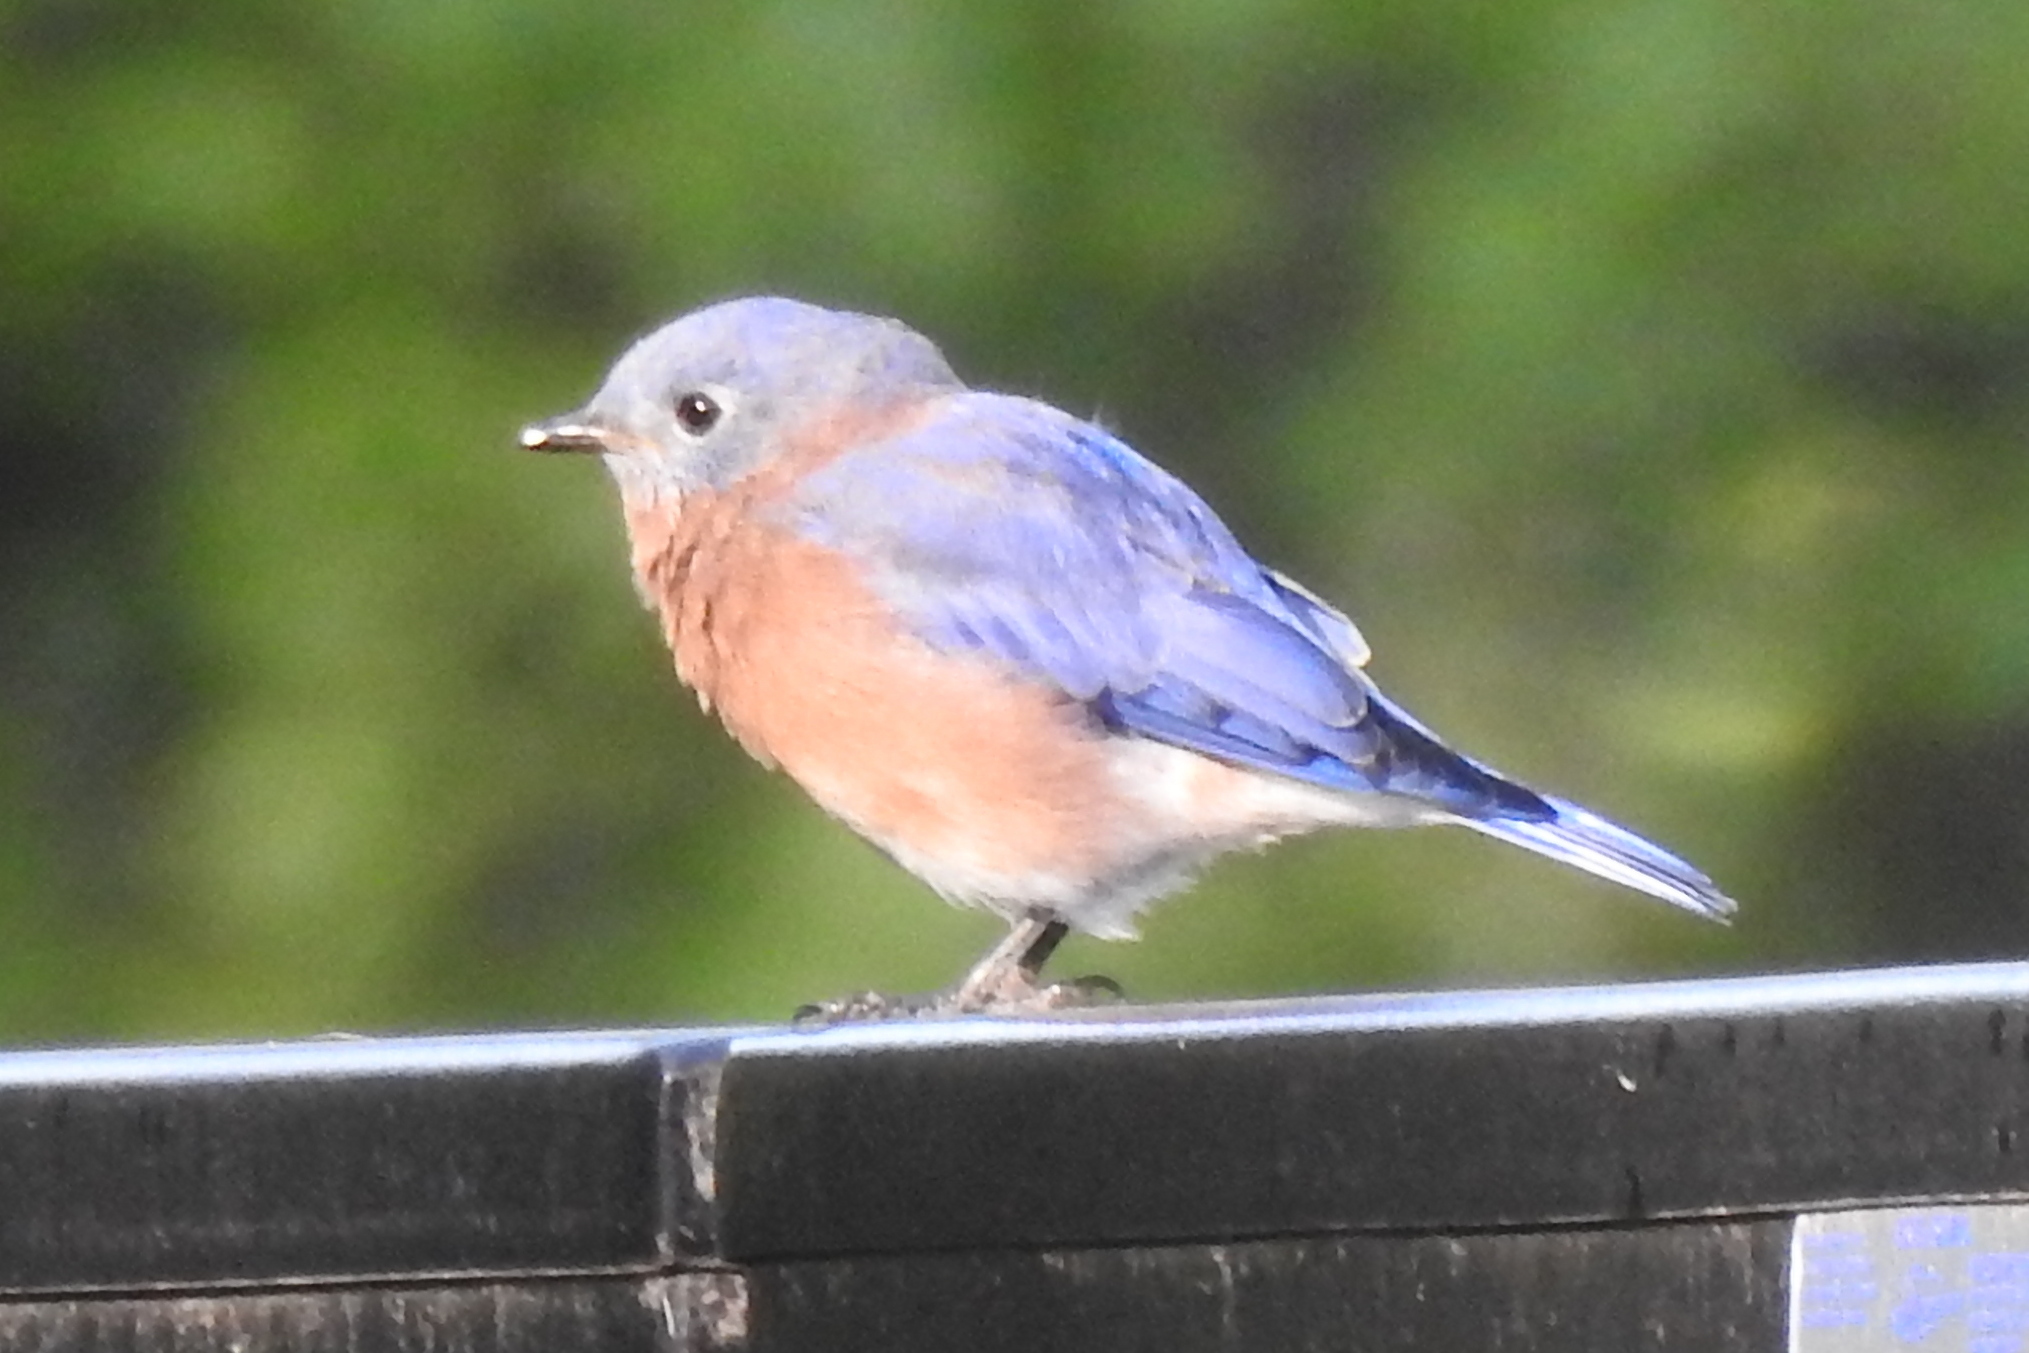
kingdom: Animalia
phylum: Chordata
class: Aves
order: Passeriformes
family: Turdidae
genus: Sialia
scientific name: Sialia sialis
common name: Eastern bluebird
